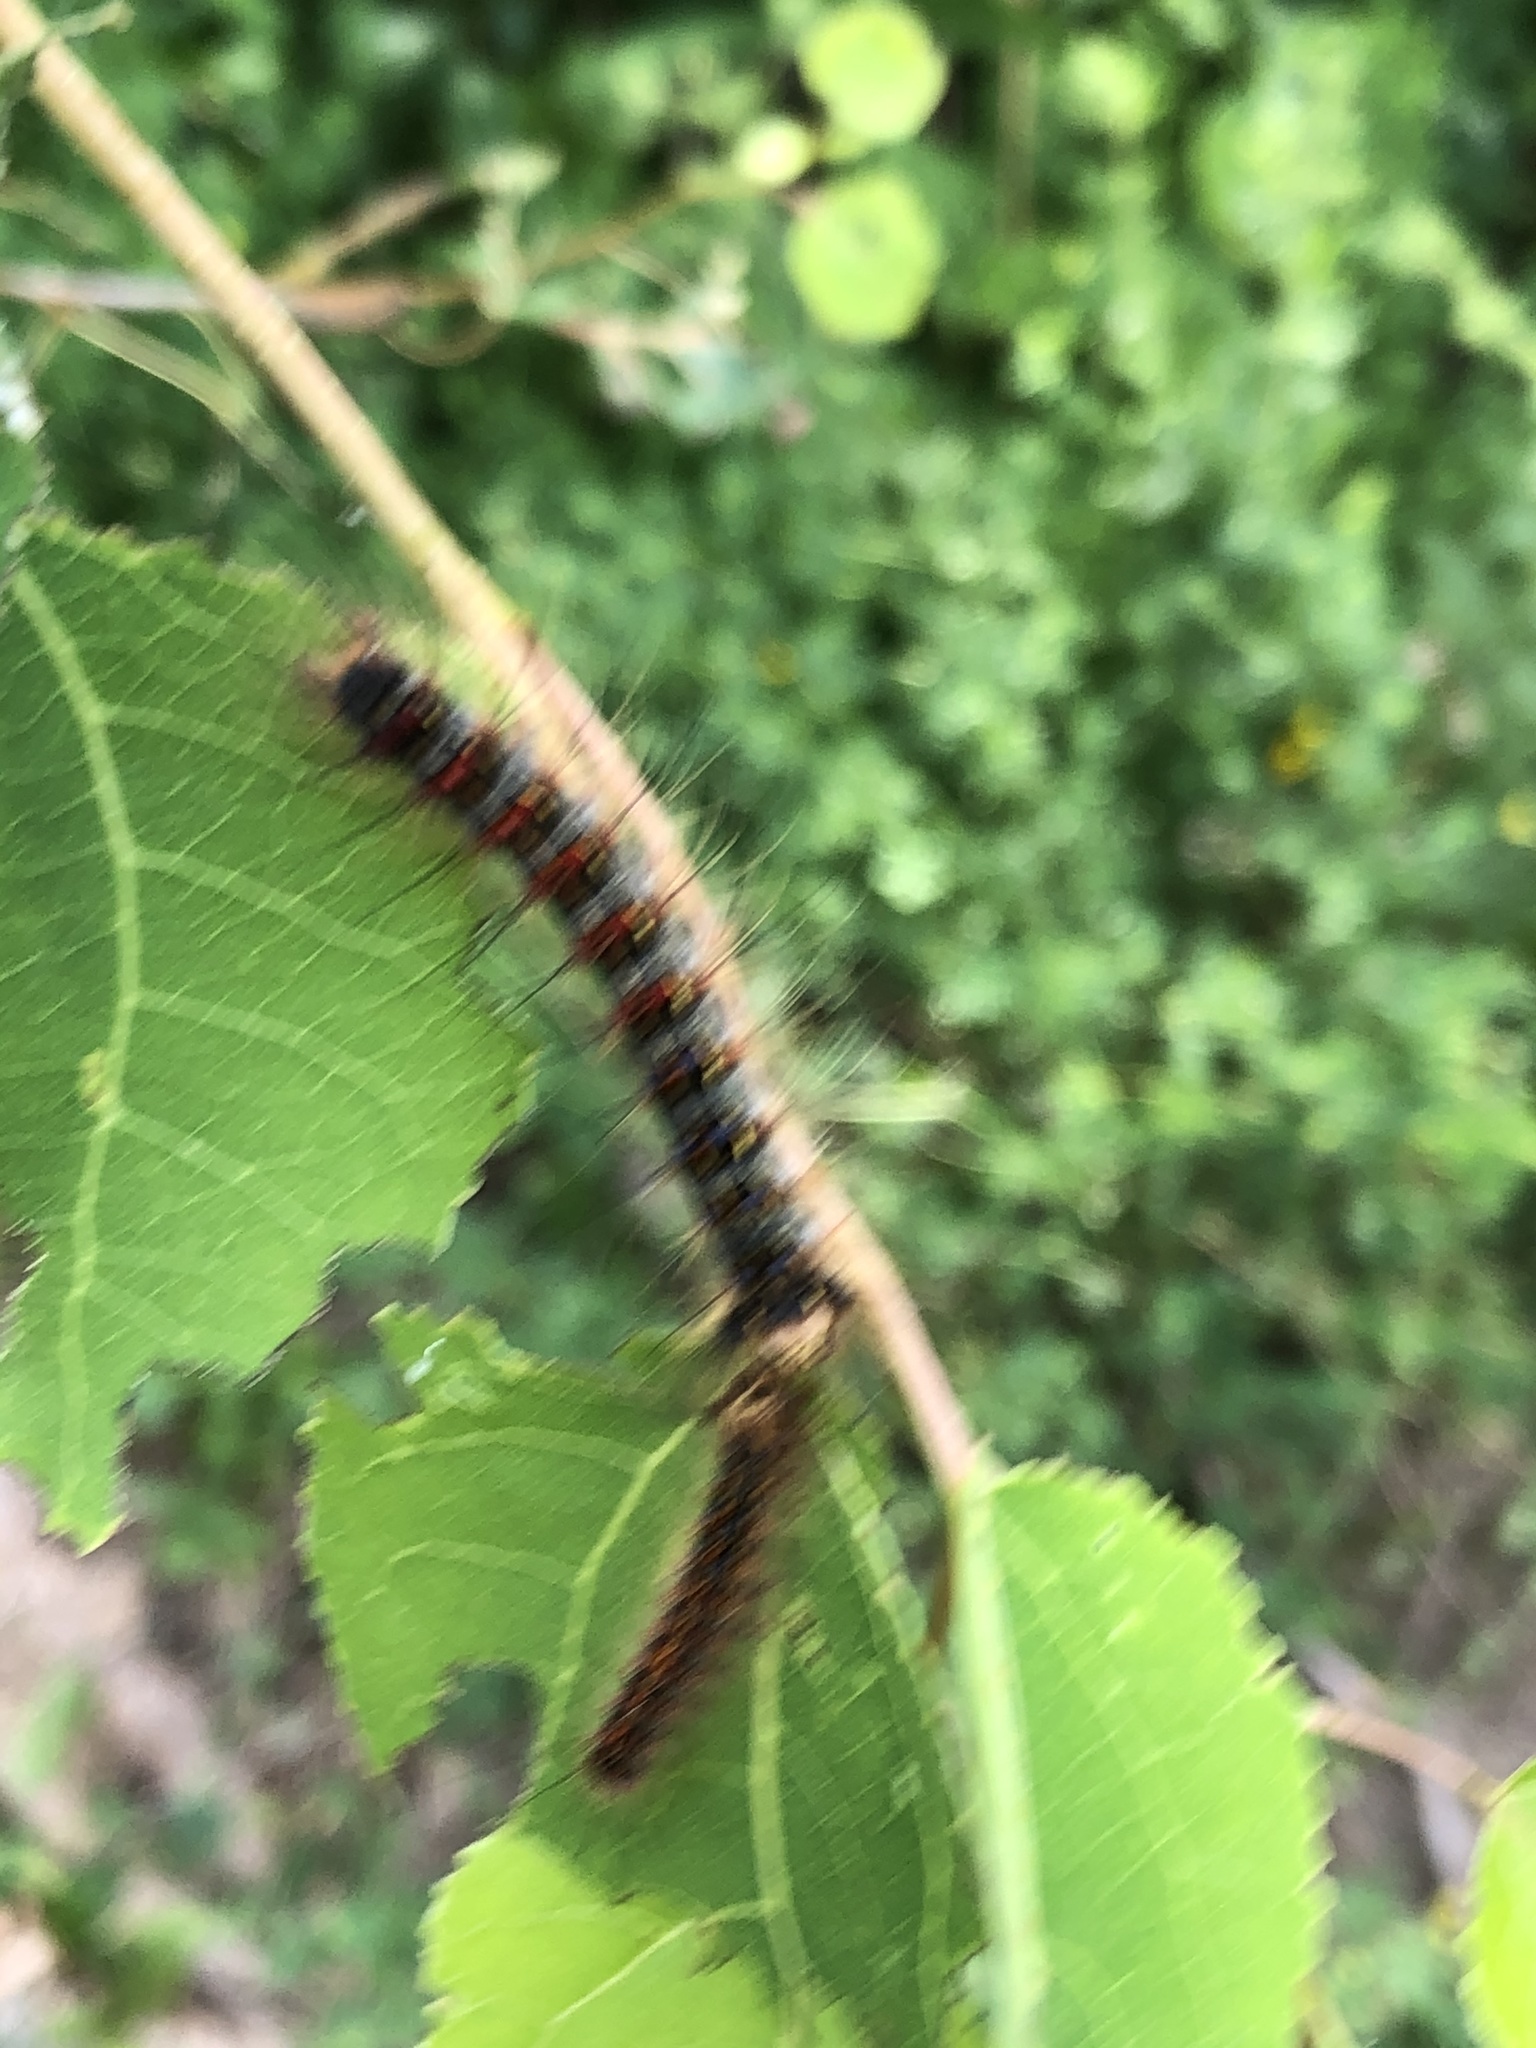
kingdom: Animalia
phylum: Arthropoda
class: Insecta
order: Lepidoptera
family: Erebidae
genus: Lymantria
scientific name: Lymantria dispar
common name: Gypsy moth
